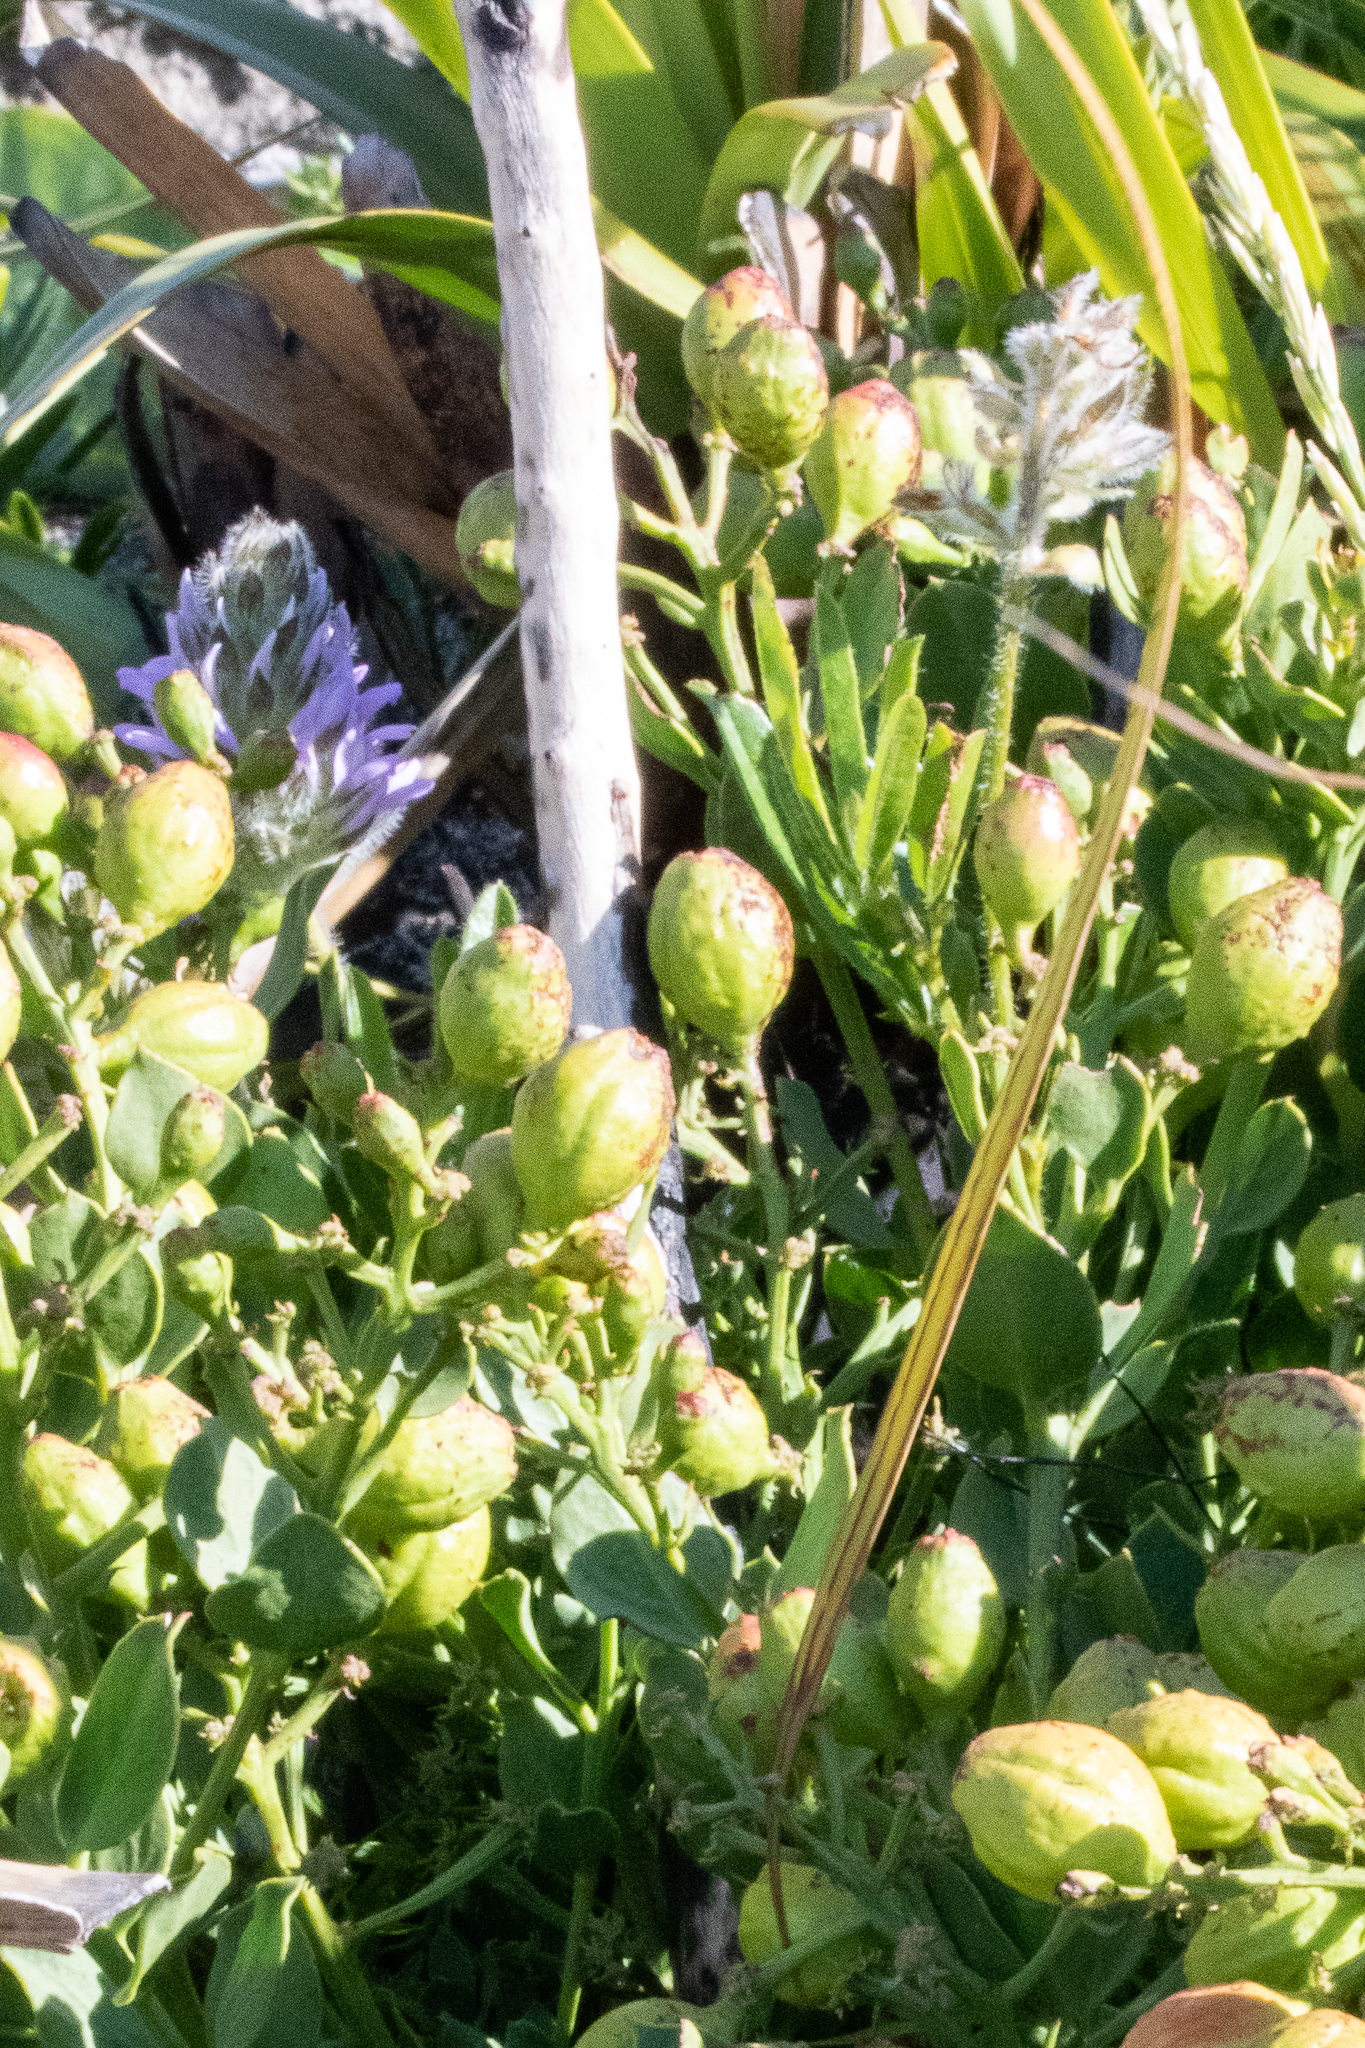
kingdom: Plantae
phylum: Tracheophyta
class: Magnoliopsida
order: Fabales
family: Fabaceae
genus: Psoralea
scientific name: Psoralea zeyheri
